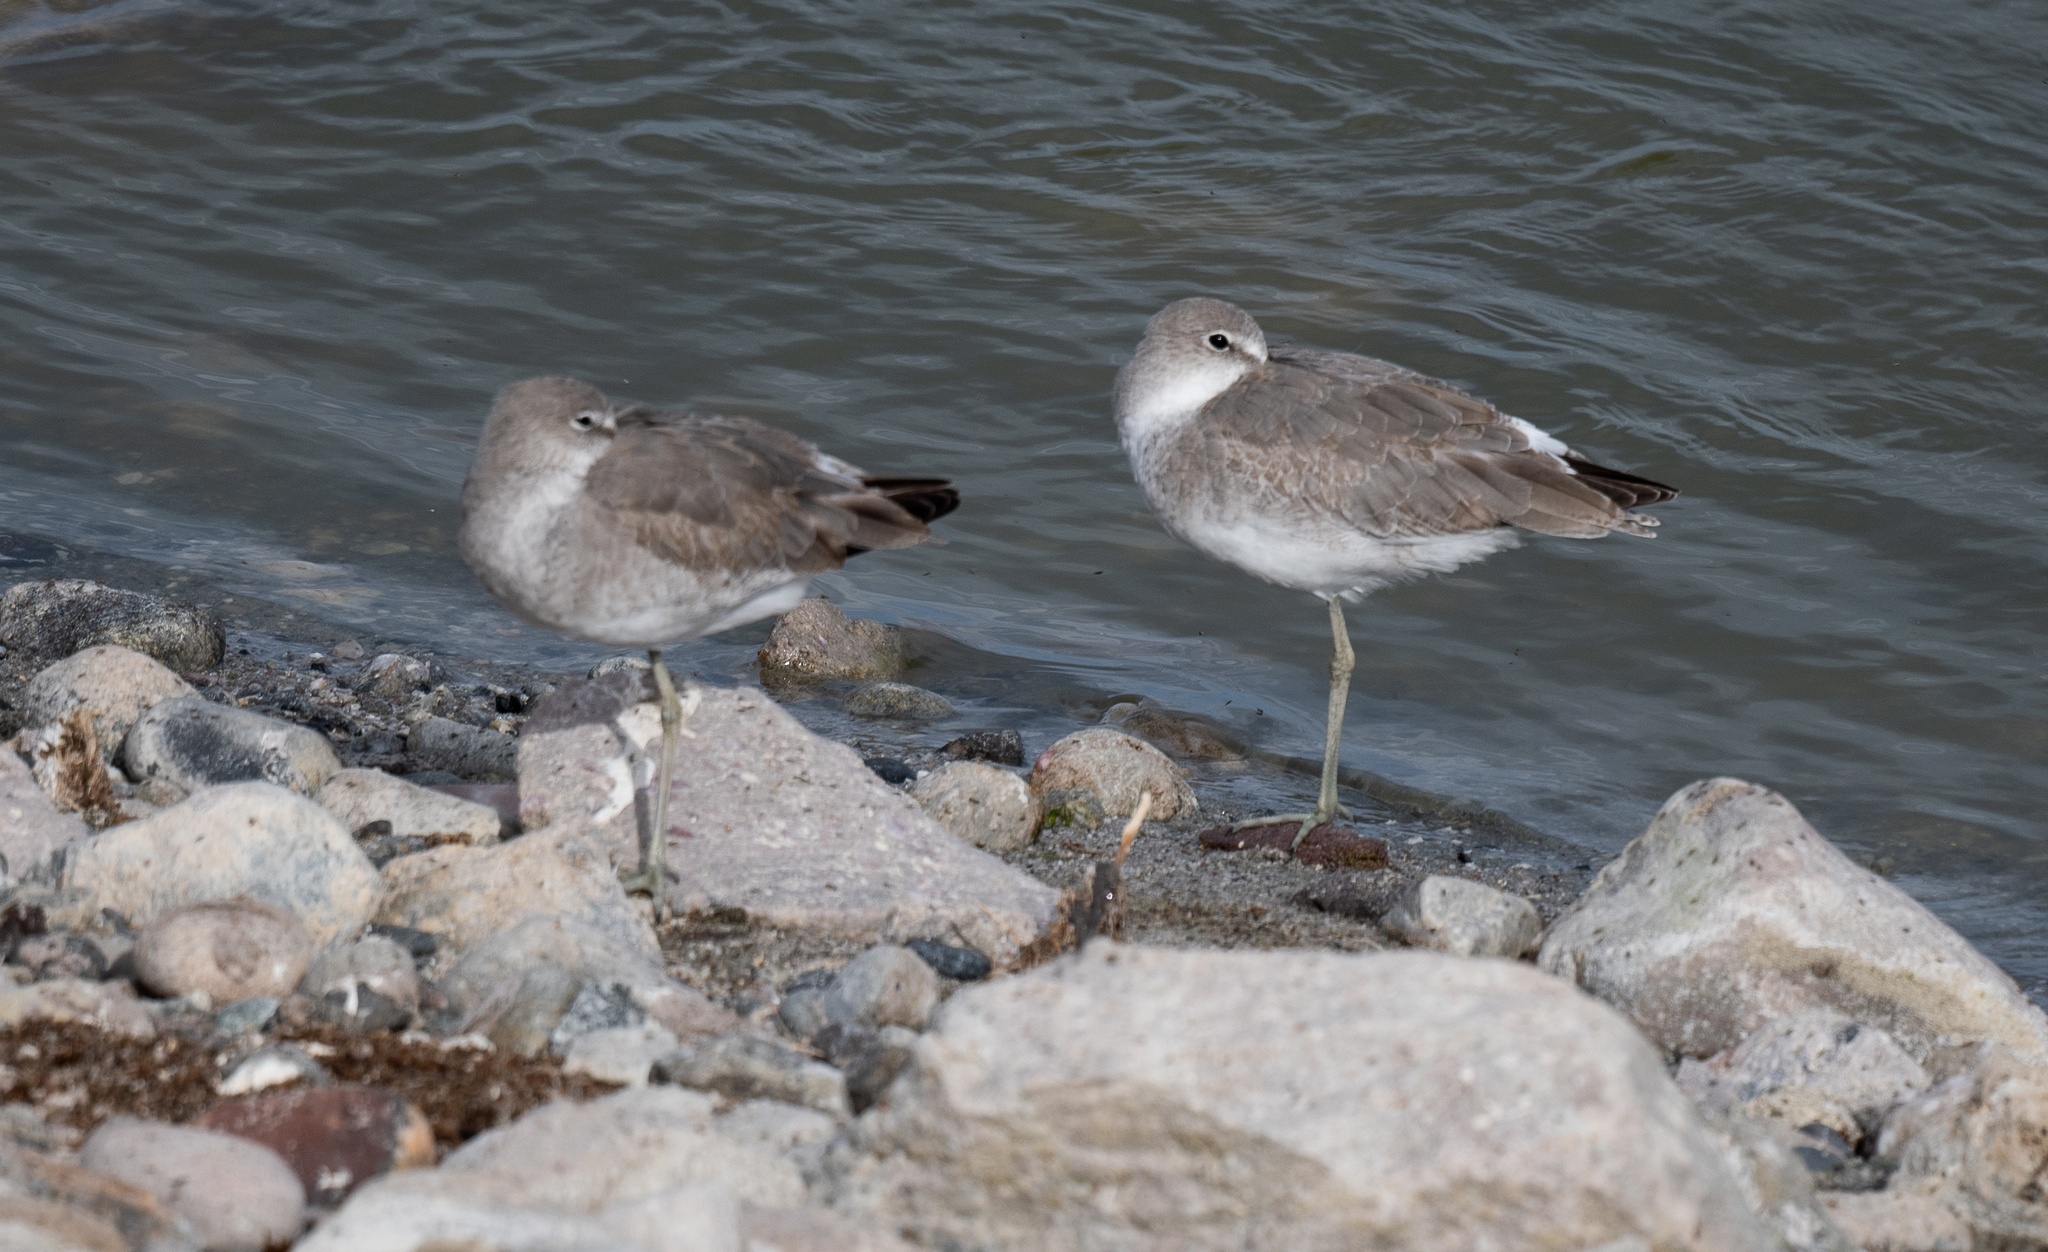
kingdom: Animalia
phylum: Chordata
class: Aves
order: Charadriiformes
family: Scolopacidae
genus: Tringa
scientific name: Tringa semipalmata
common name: Willet
